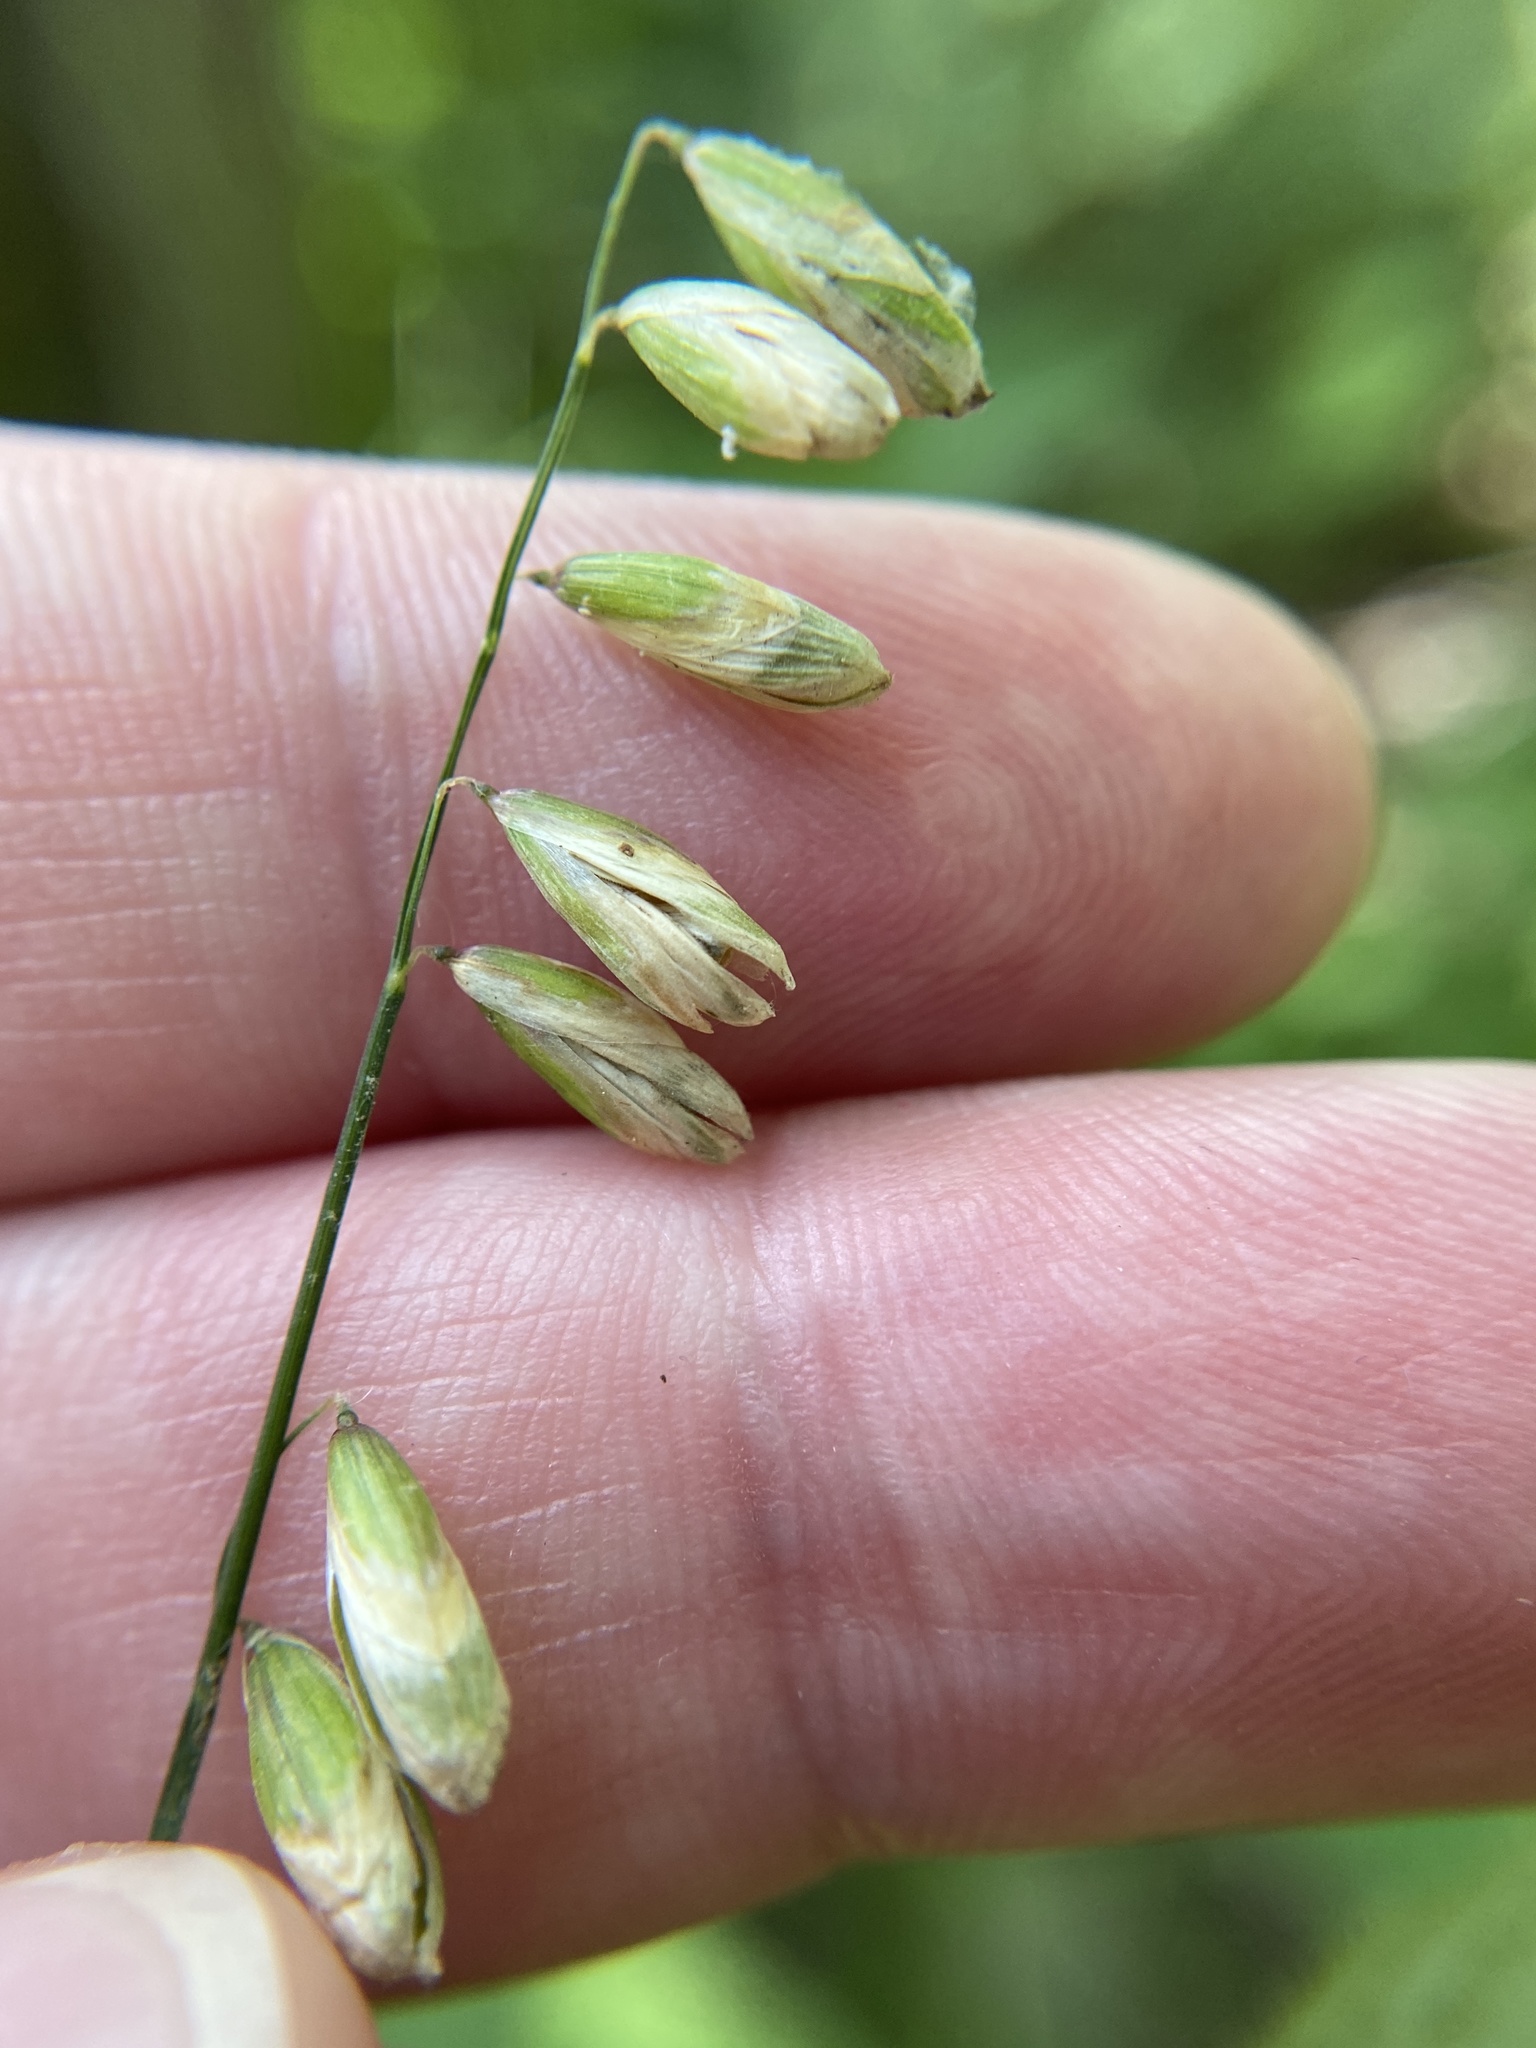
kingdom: Plantae
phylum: Tracheophyta
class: Liliopsida
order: Poales
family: Poaceae
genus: Melica
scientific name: Melica mutica
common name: Two-flower melic
